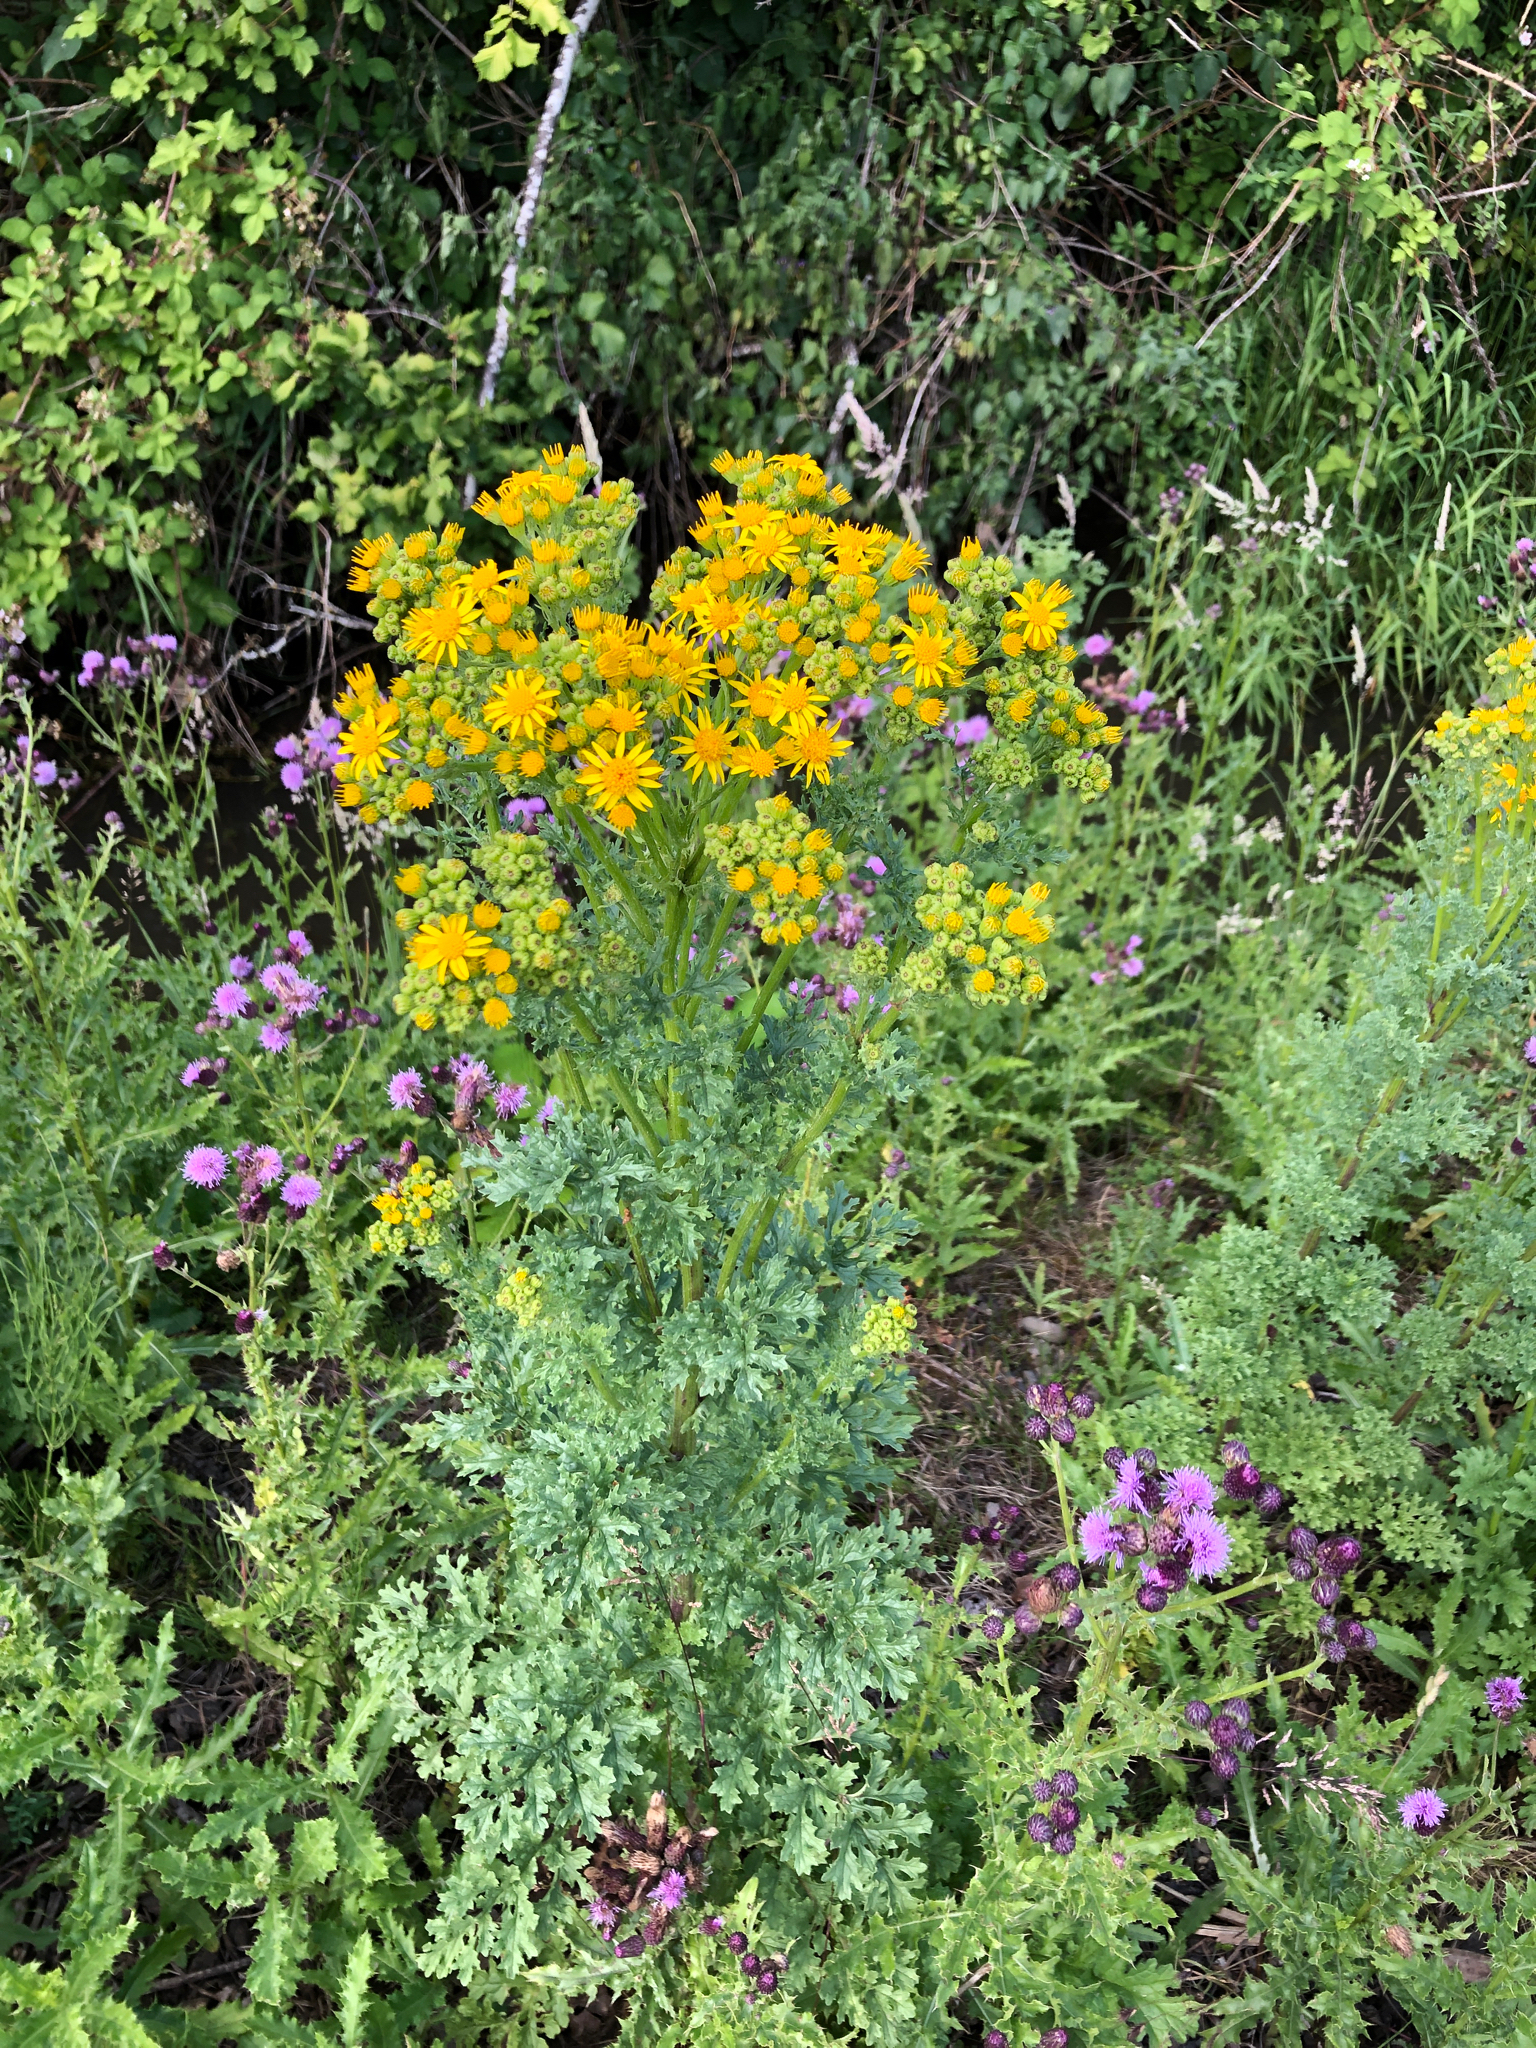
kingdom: Plantae
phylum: Tracheophyta
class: Magnoliopsida
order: Asterales
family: Asteraceae
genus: Jacobaea
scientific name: Jacobaea vulgaris
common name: Stinking willie
